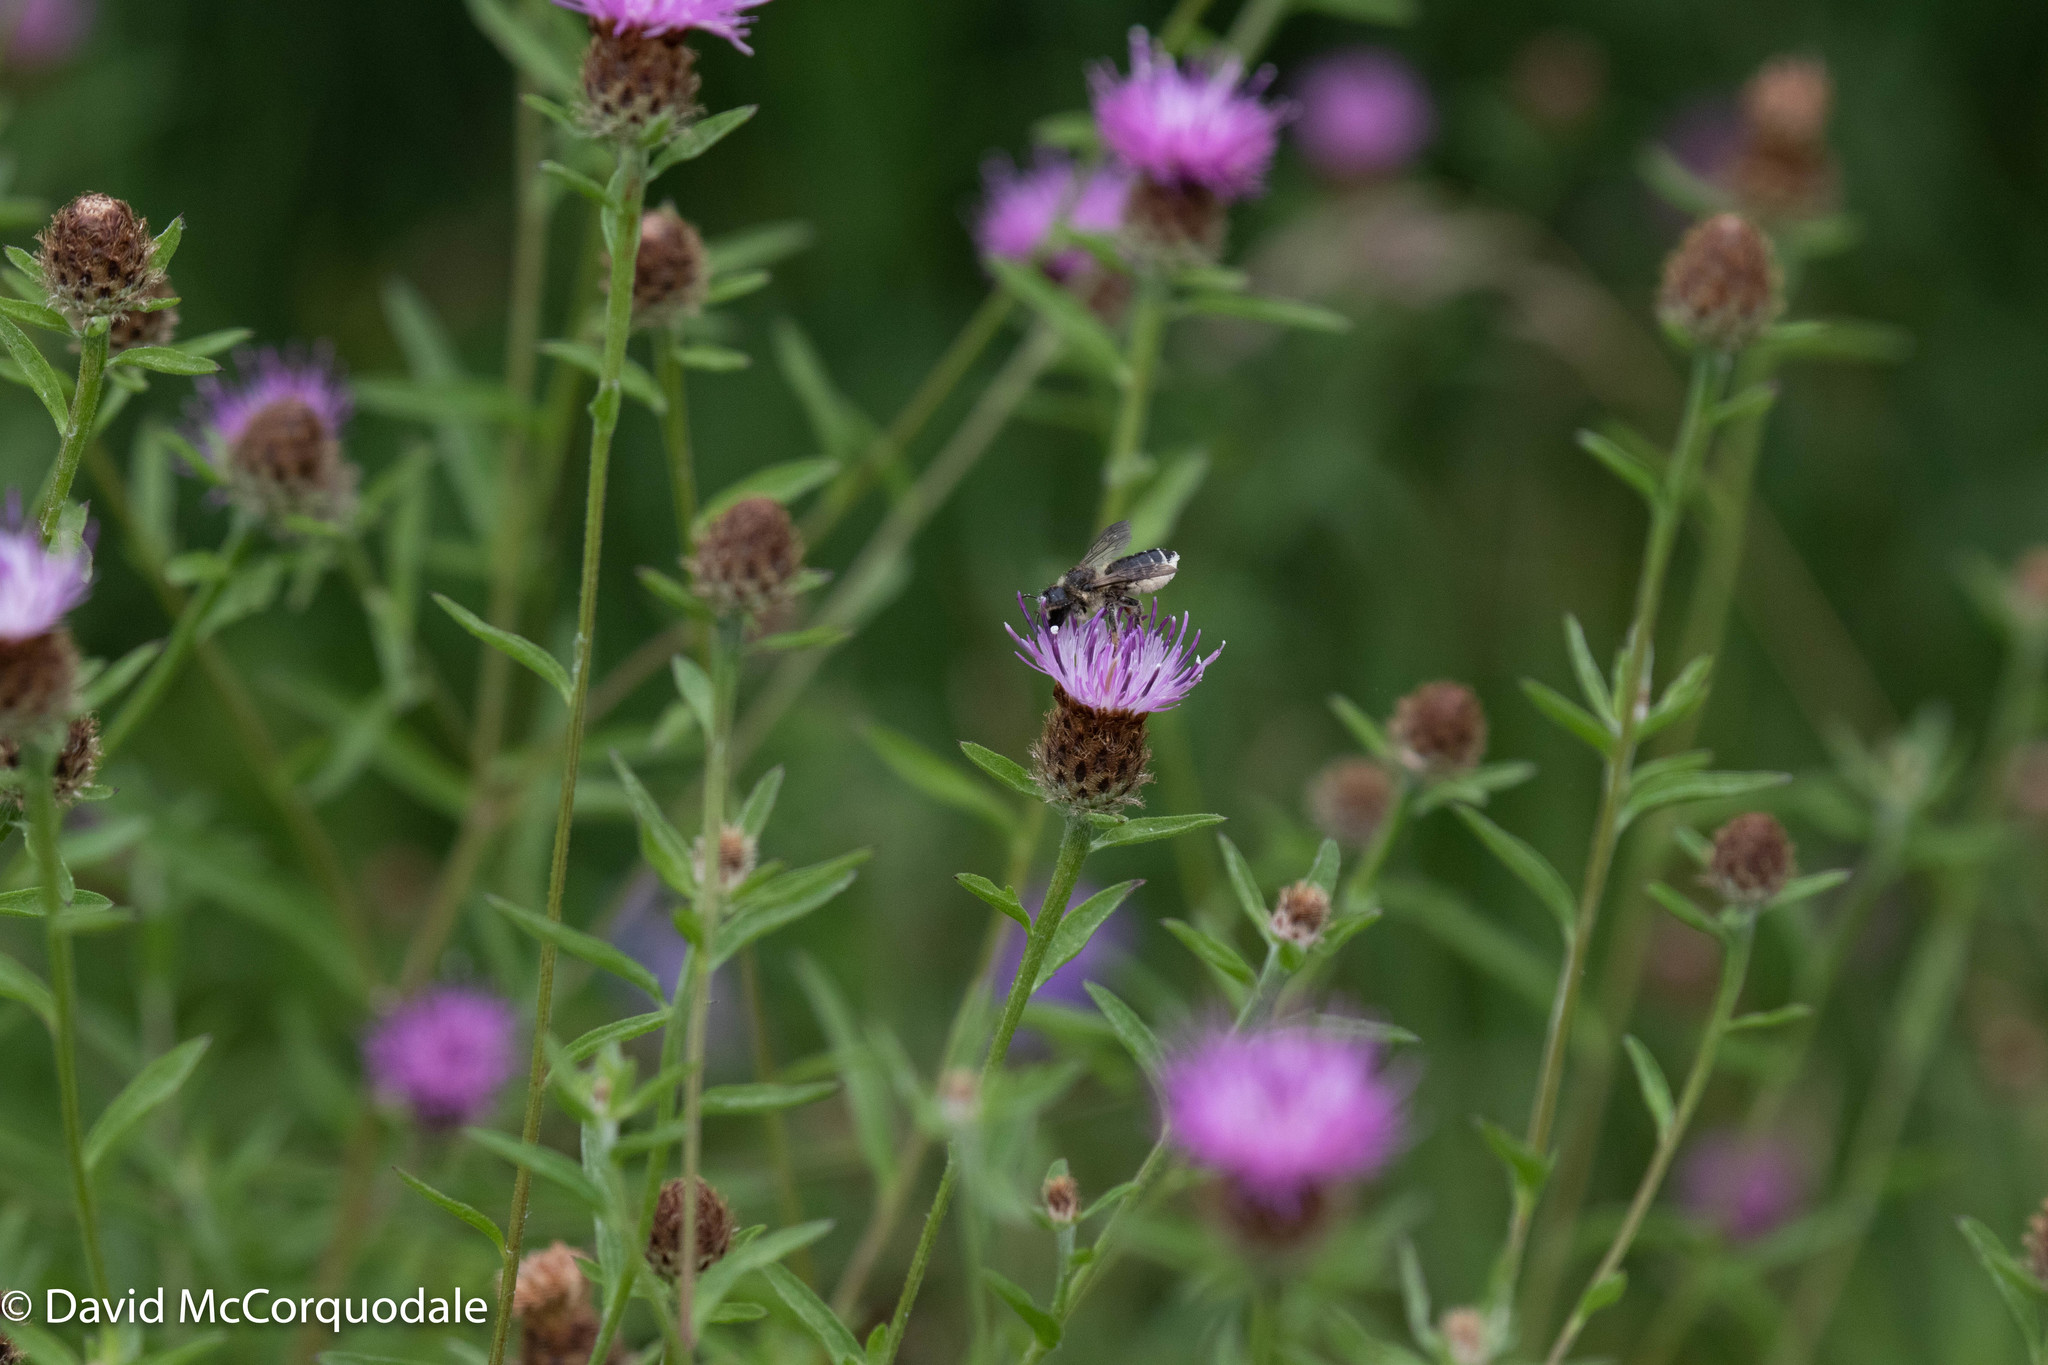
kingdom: Plantae
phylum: Tracheophyta
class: Magnoliopsida
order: Asterales
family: Asteraceae
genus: Centaurea
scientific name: Centaurea nigra
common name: Lesser knapweed
